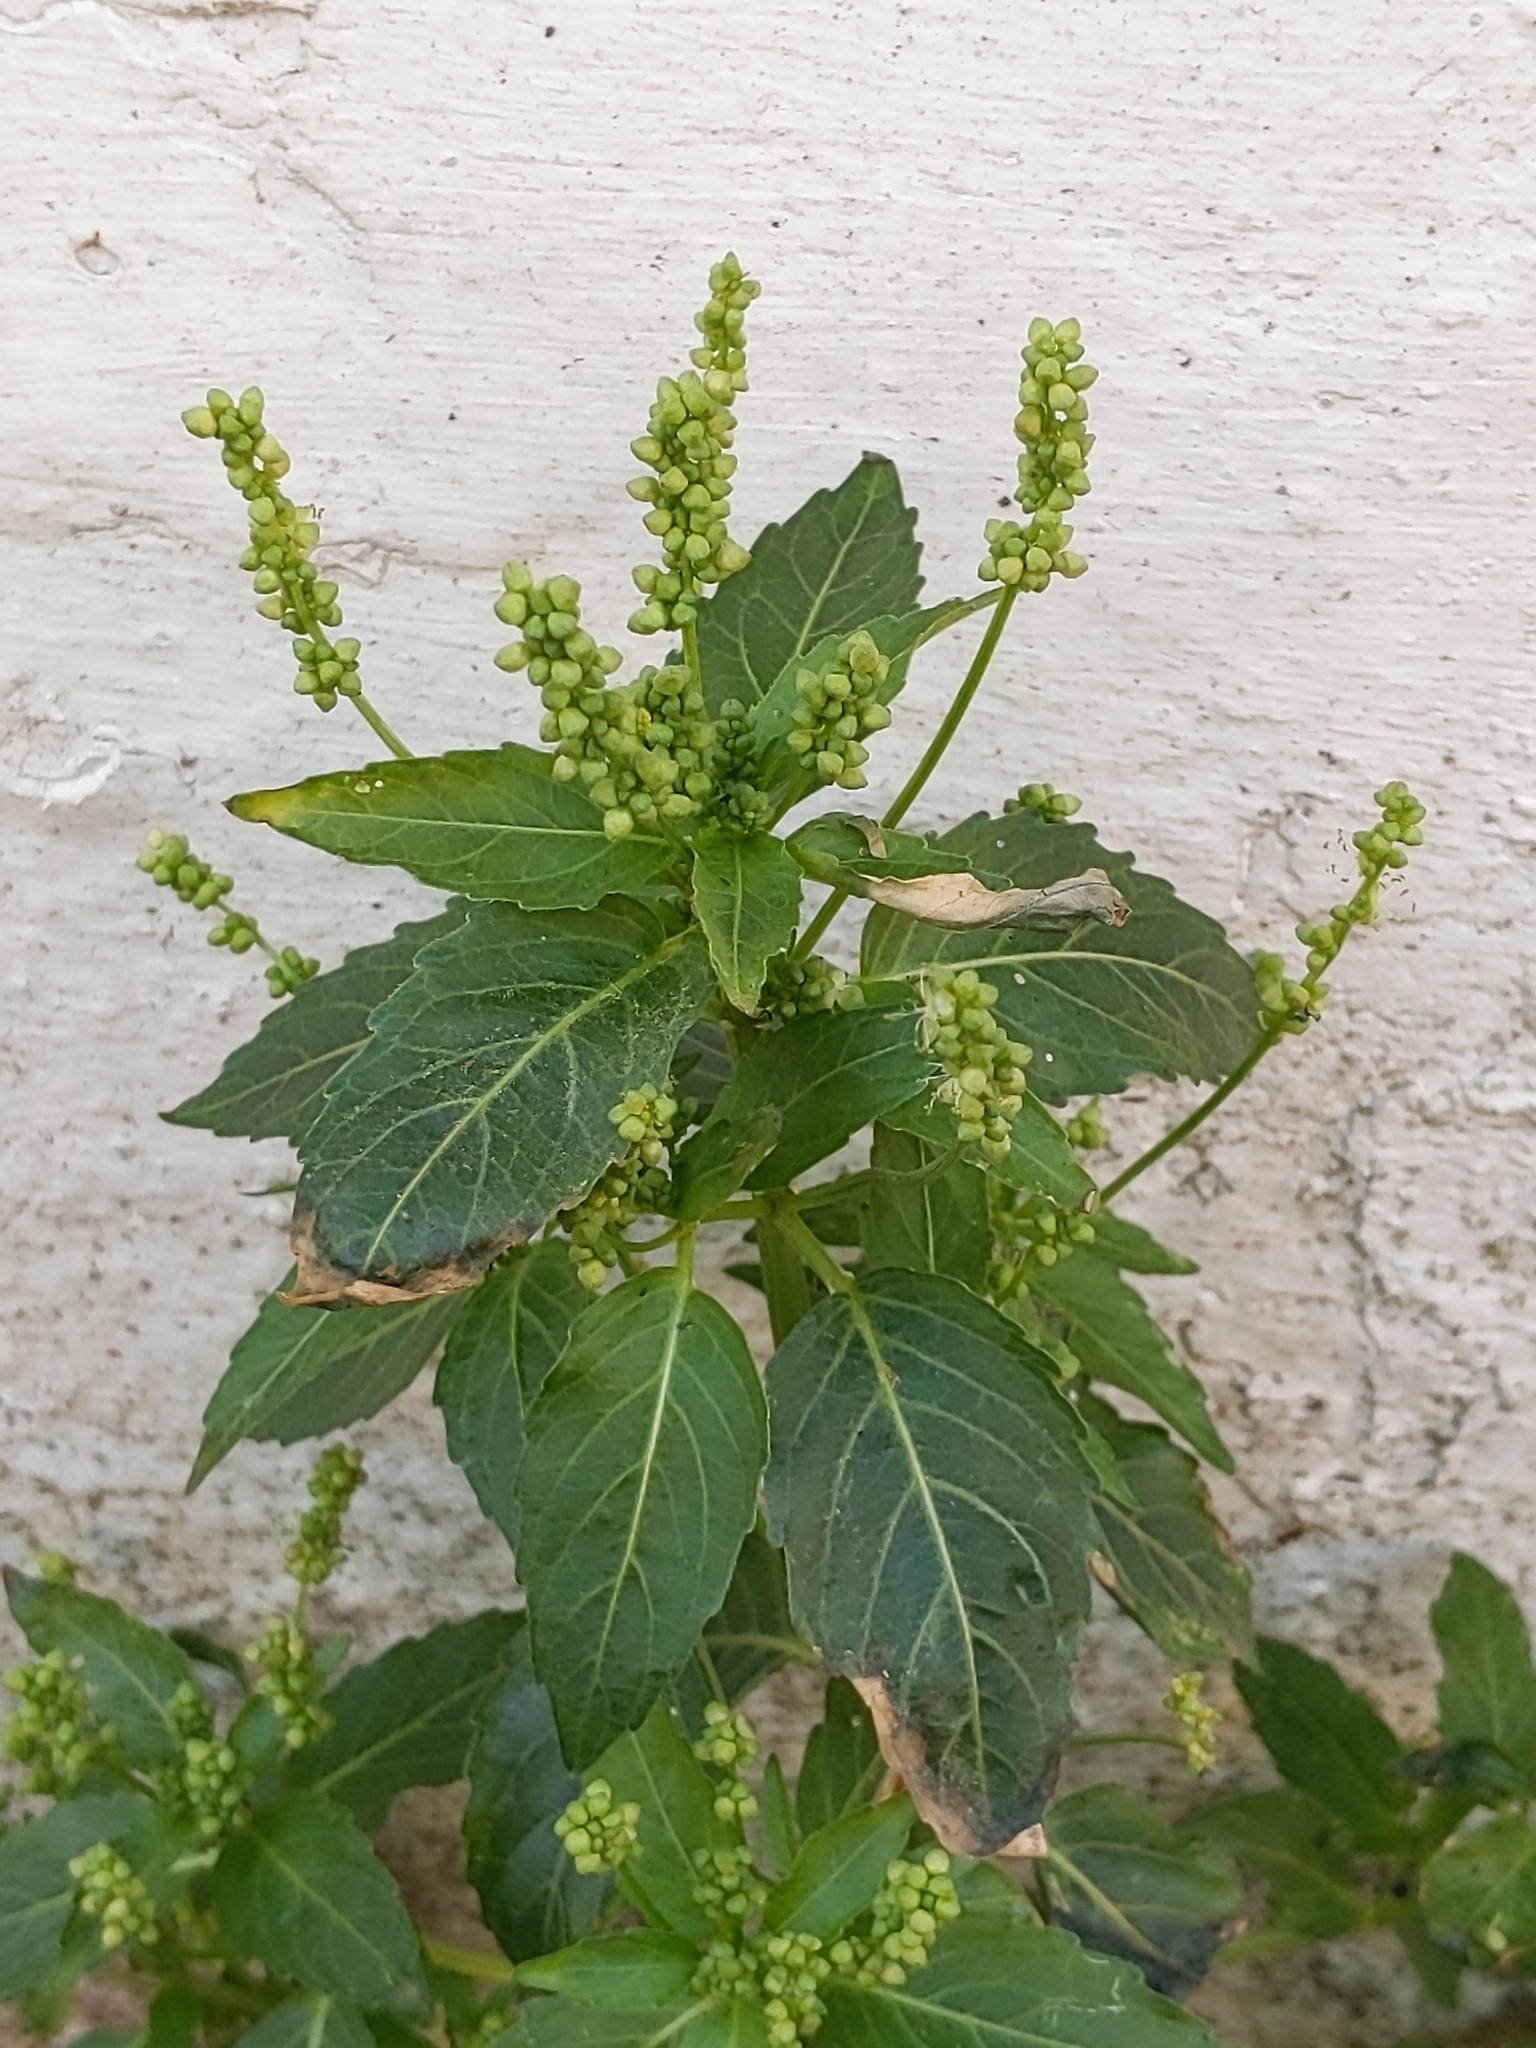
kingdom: Plantae
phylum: Tracheophyta
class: Magnoliopsida
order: Malpighiales
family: Euphorbiaceae
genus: Mercurialis
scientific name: Mercurialis annua
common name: Annual mercury
